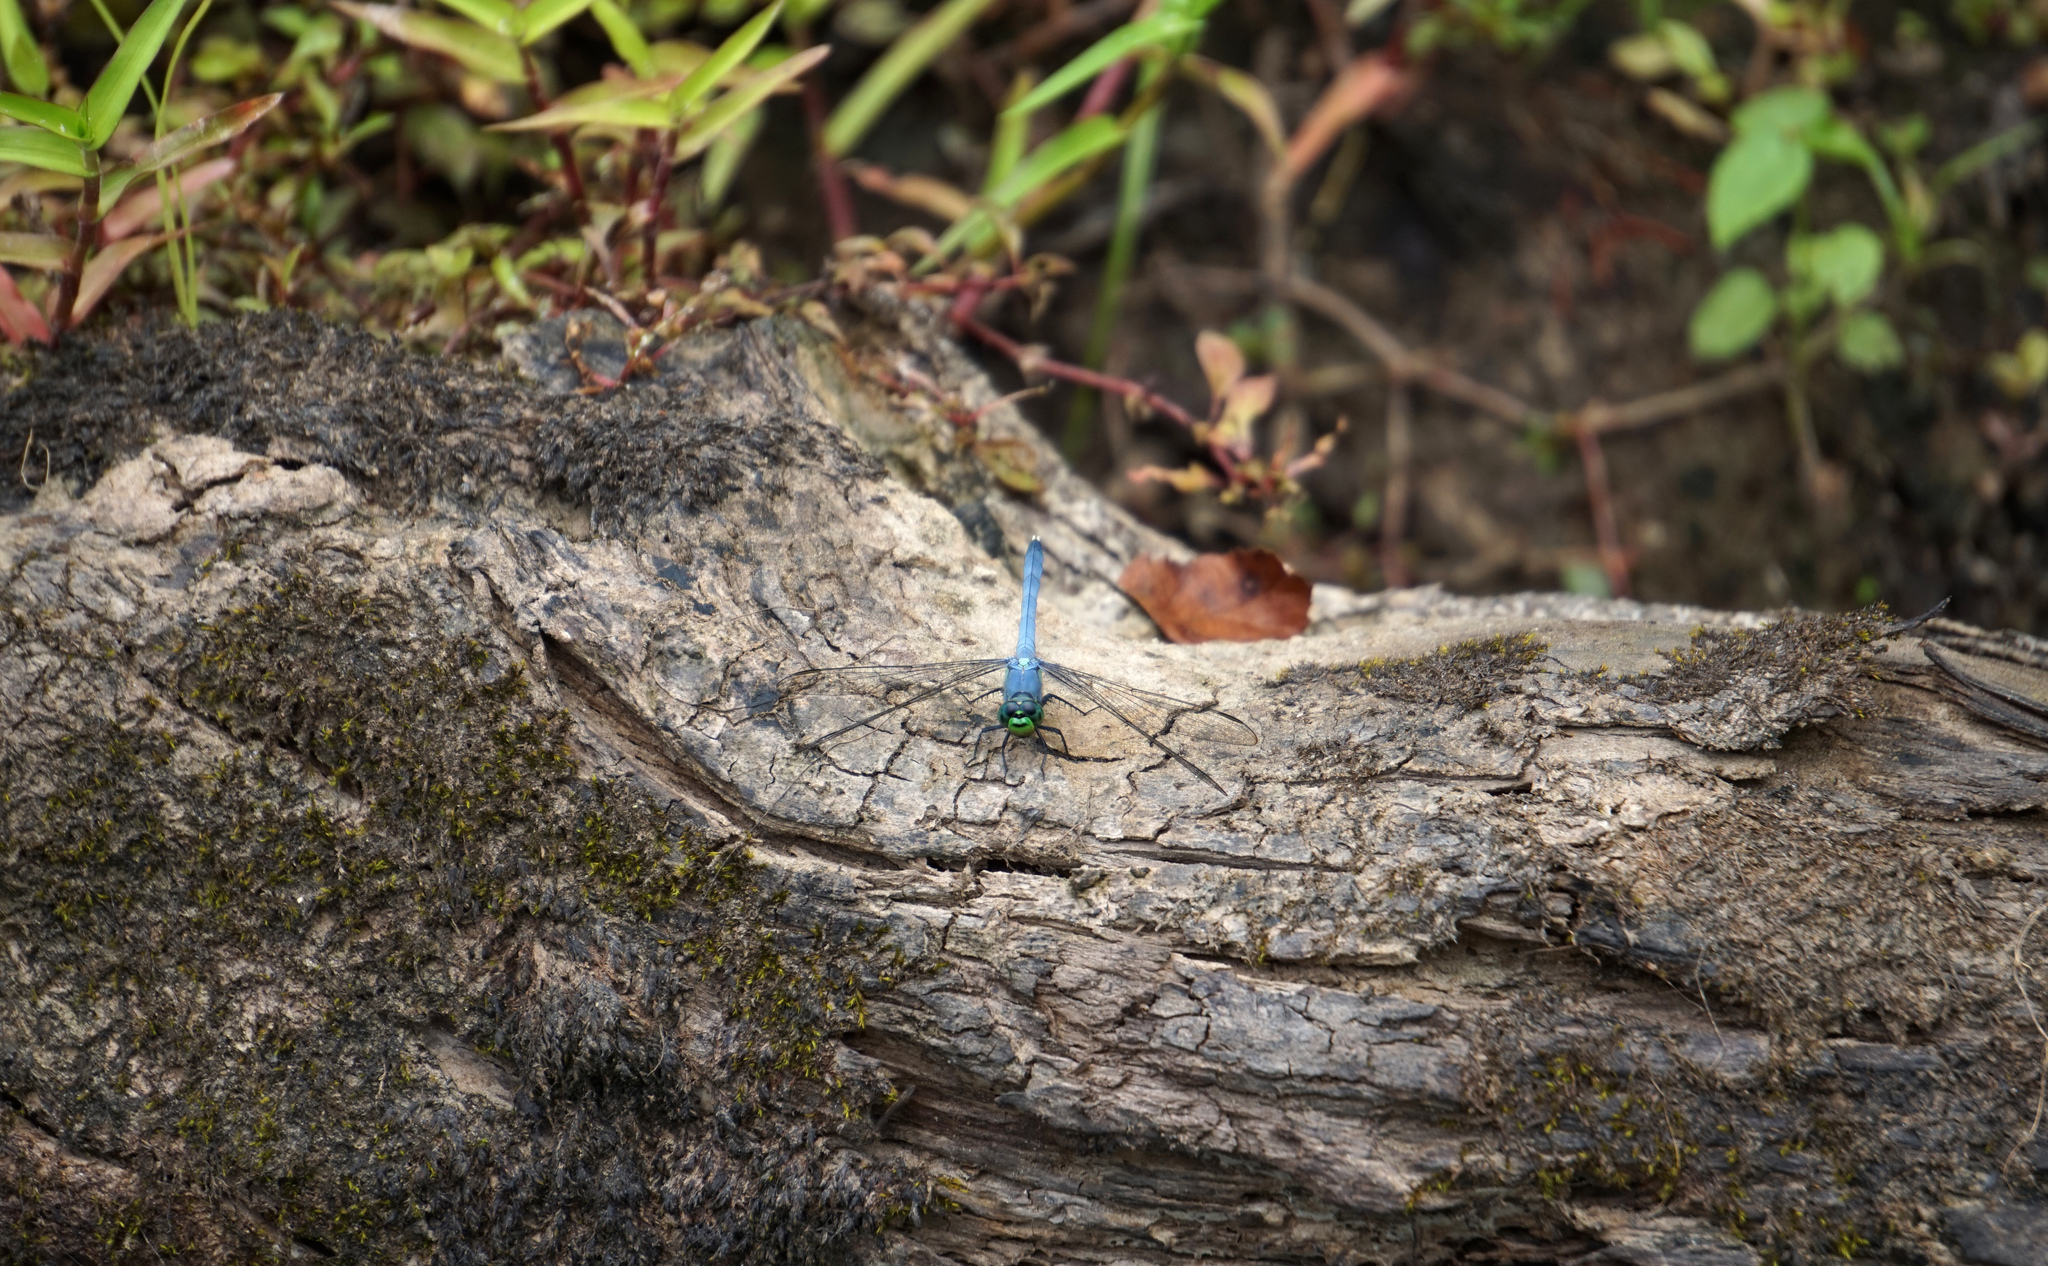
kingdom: Animalia
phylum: Arthropoda
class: Insecta
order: Odonata
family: Libellulidae
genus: Erythemis
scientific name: Erythemis simplicicollis
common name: Eastern pondhawk
